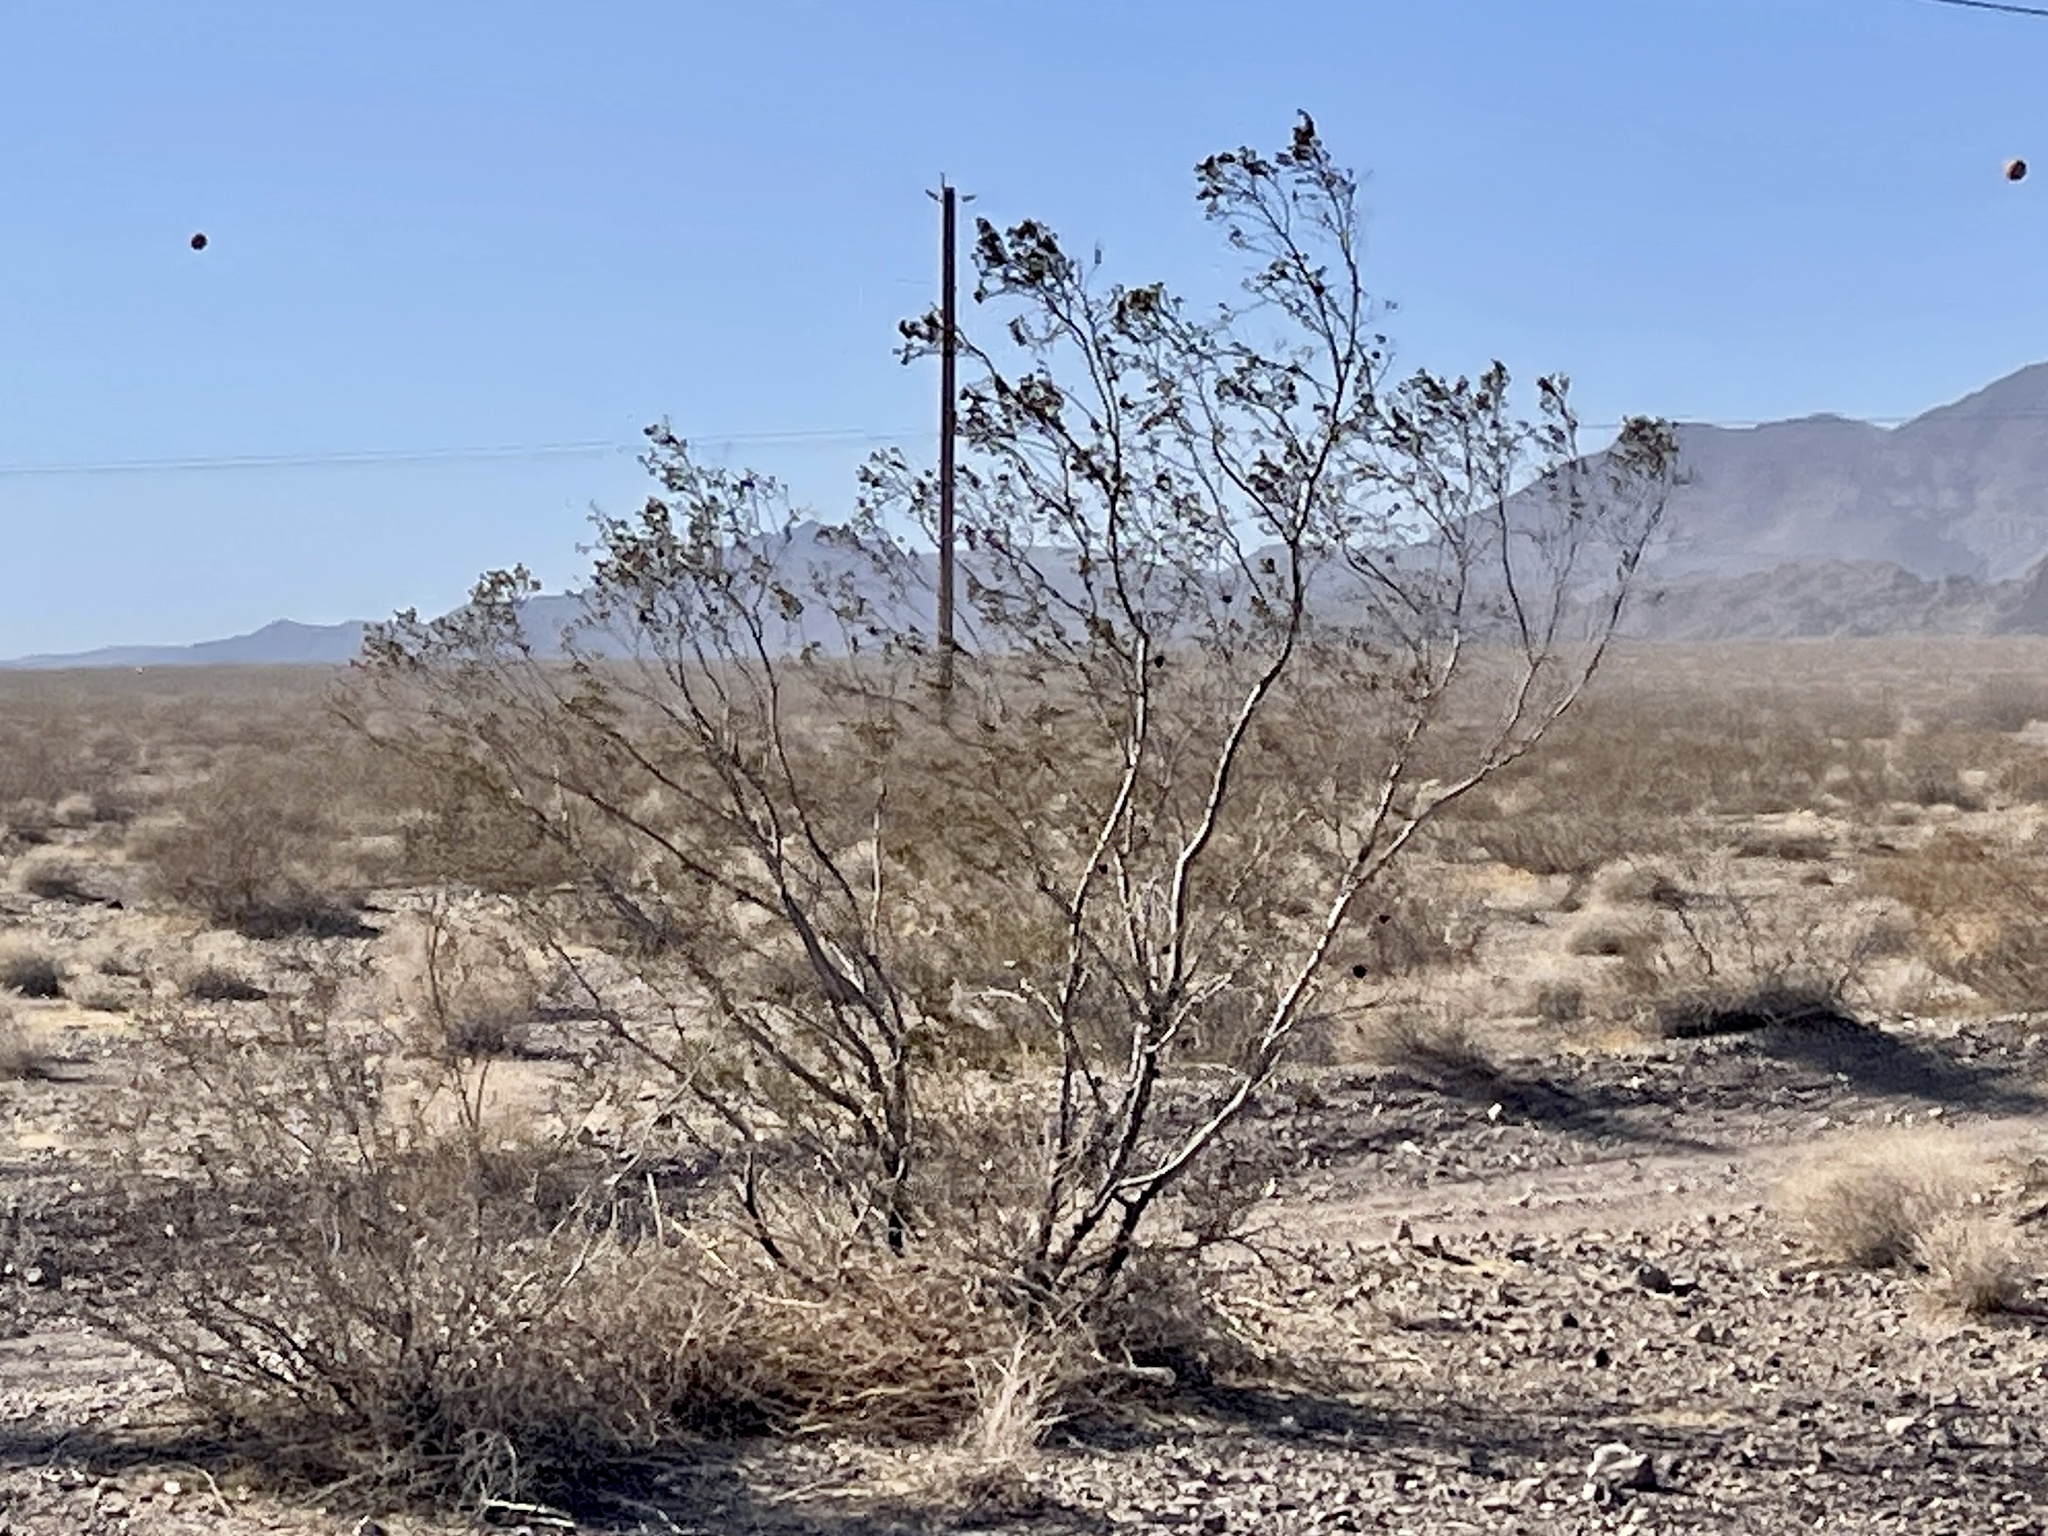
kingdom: Plantae
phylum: Tracheophyta
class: Magnoliopsida
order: Zygophyllales
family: Zygophyllaceae
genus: Larrea
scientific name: Larrea tridentata
